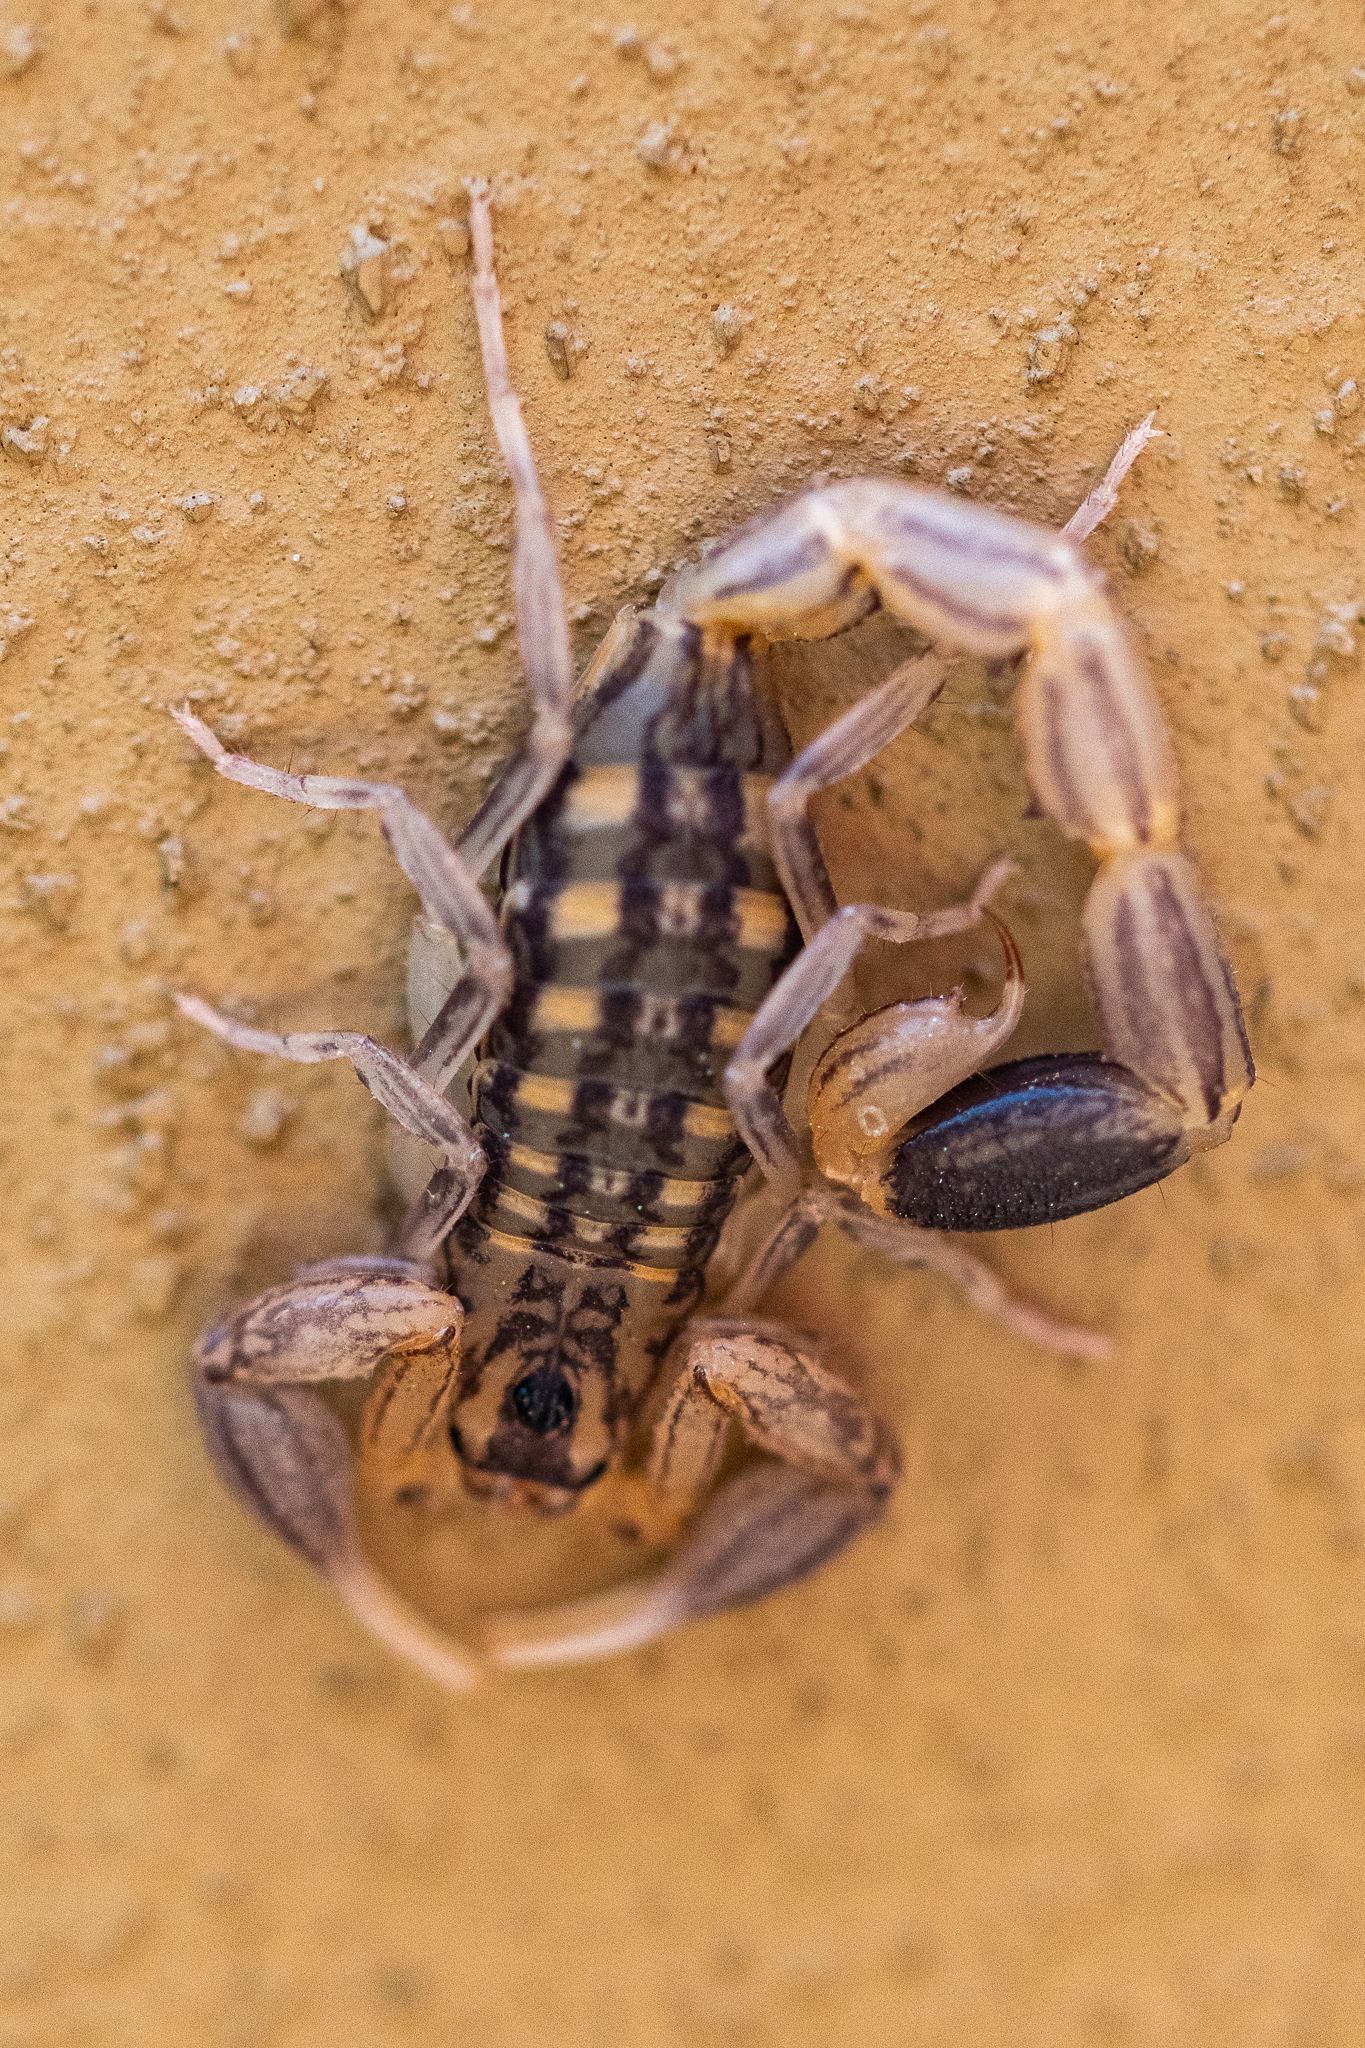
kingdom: Animalia
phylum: Arthropoda
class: Arachnida
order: Scorpiones
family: Buthidae
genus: Uroplectes
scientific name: Uroplectes lineatus
